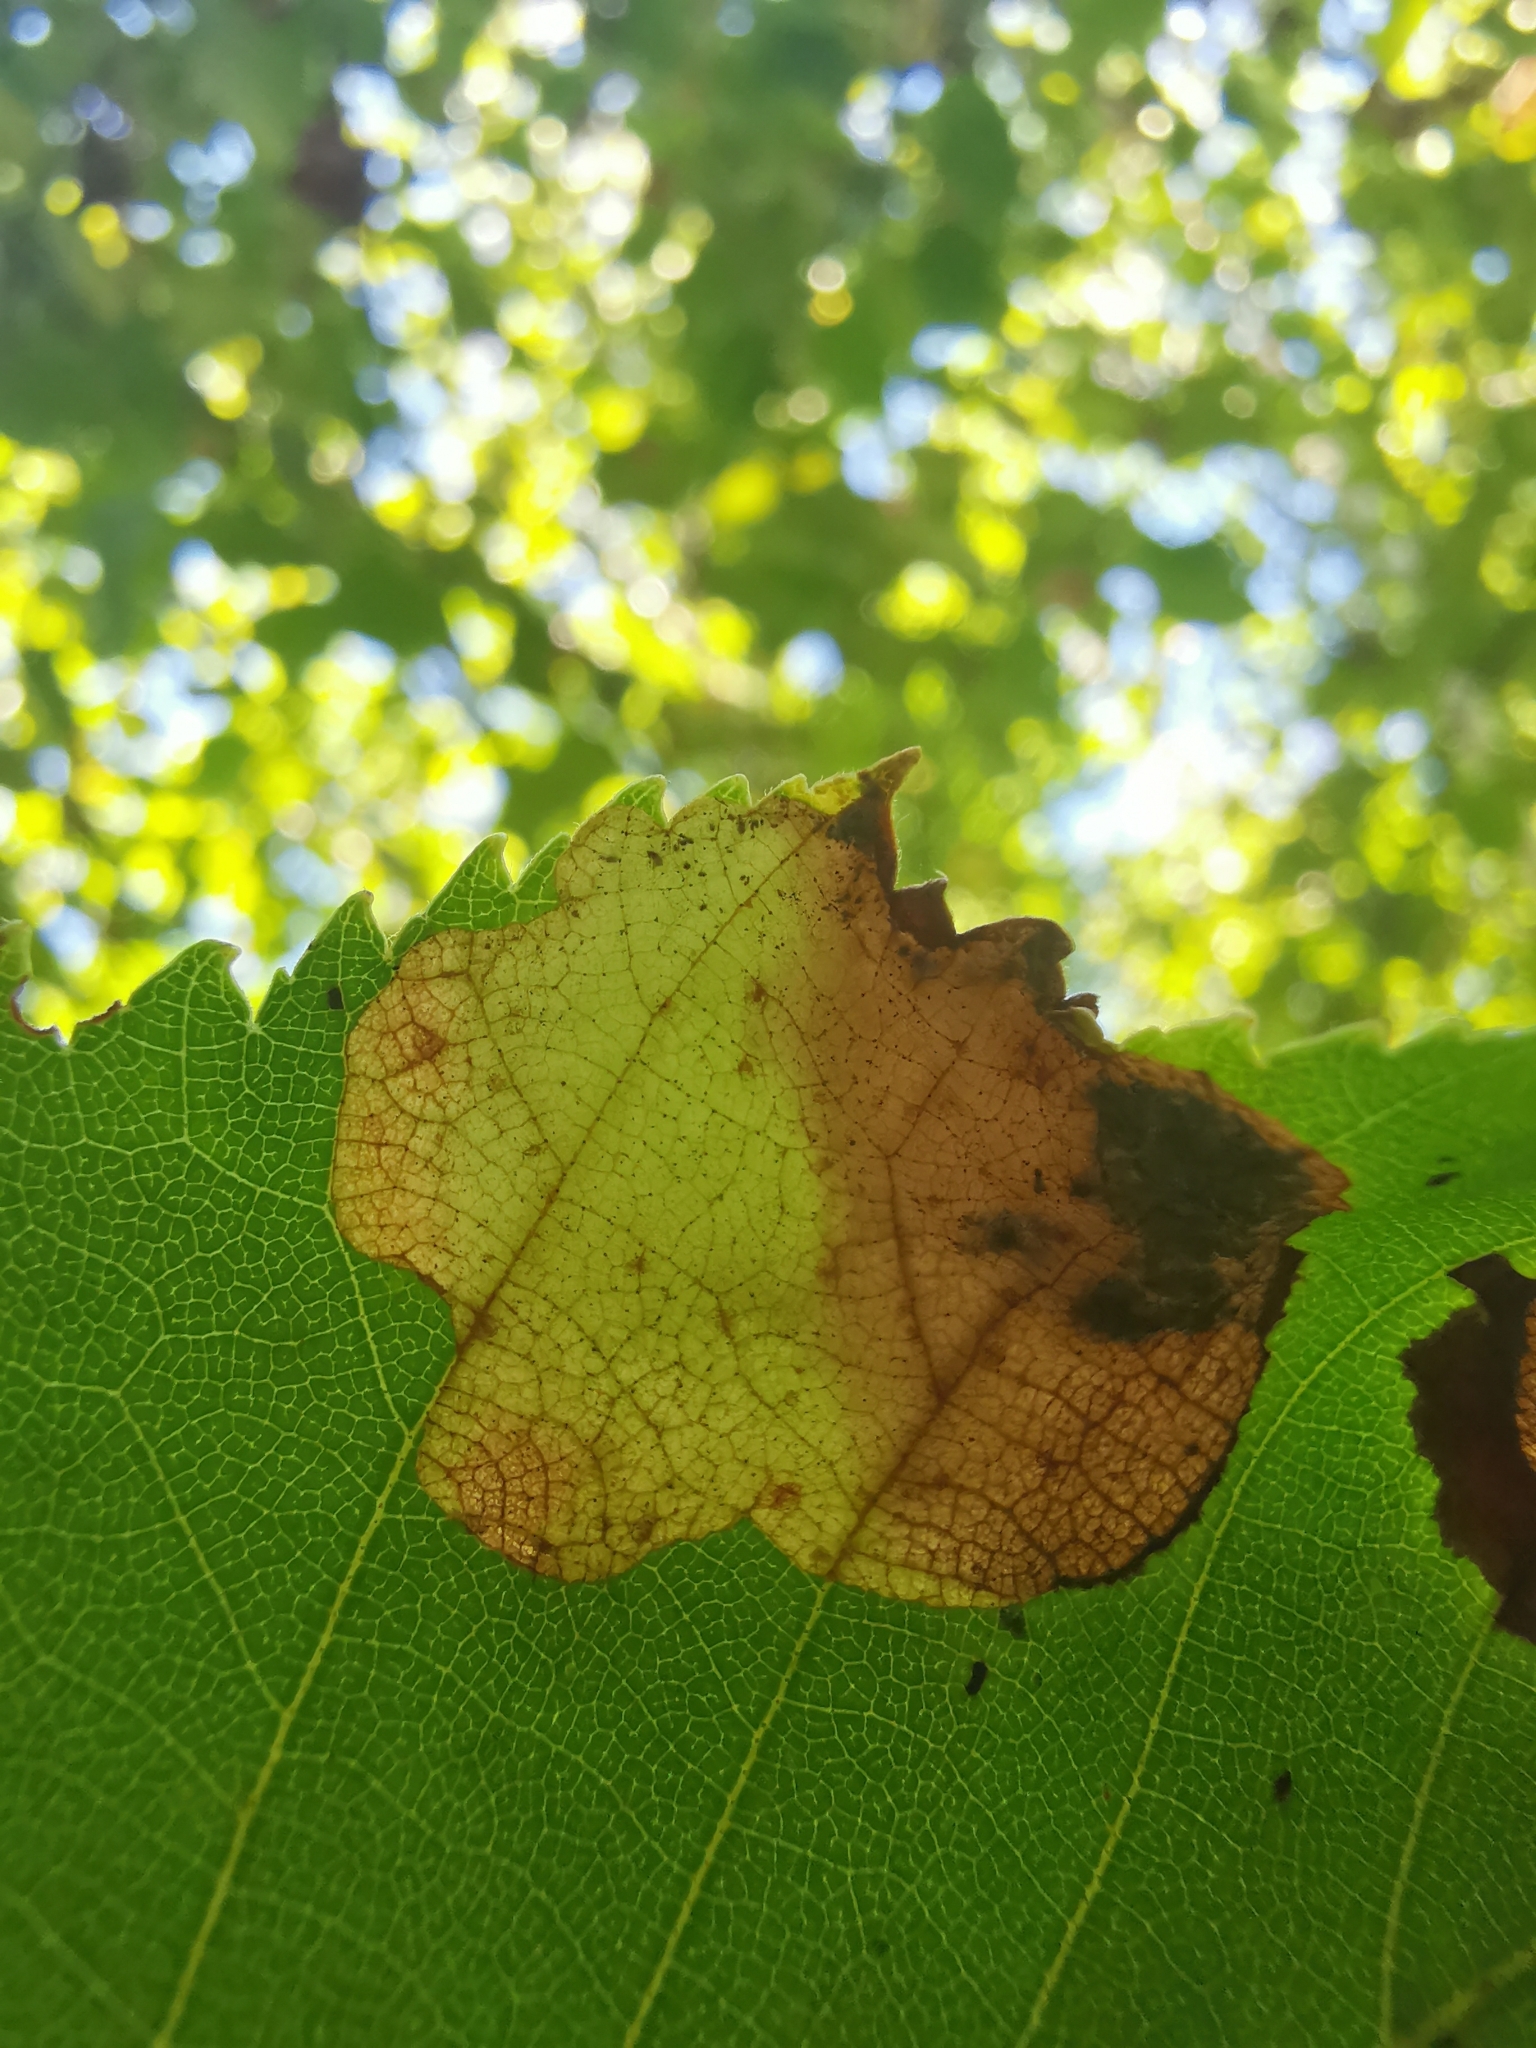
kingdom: Animalia
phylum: Arthropoda
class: Insecta
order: Hymenoptera
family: Tenthredinidae
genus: Fenusella
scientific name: Fenusella nana
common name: Early birch leaf edgeminer
